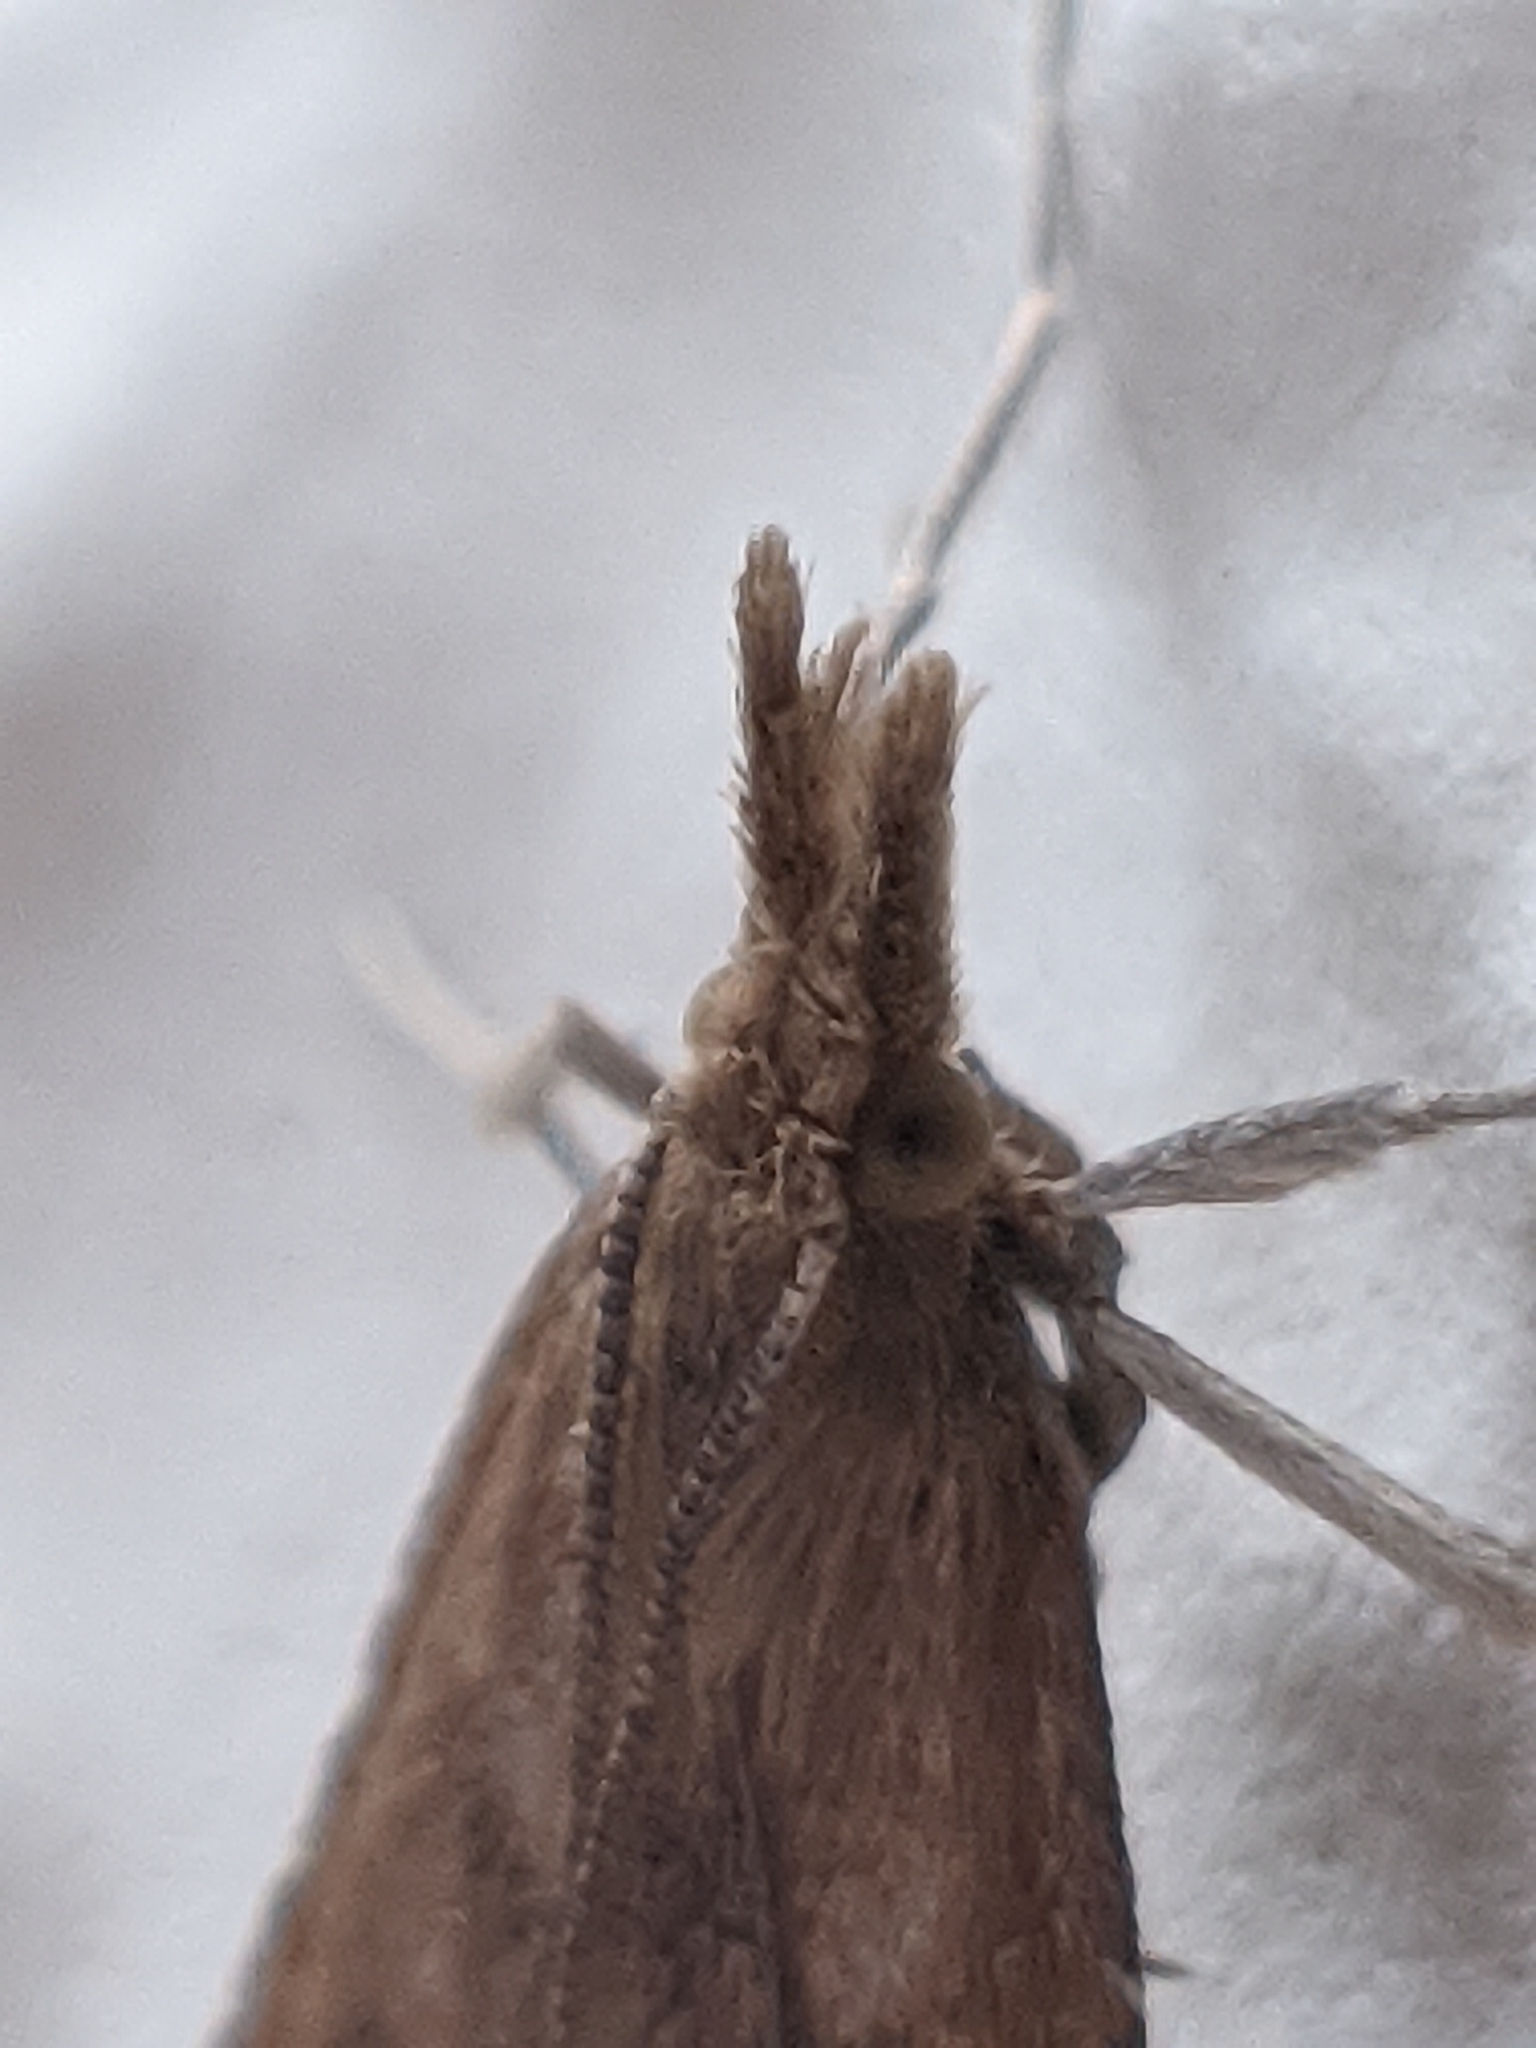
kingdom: Animalia
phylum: Arthropoda
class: Insecta
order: Lepidoptera
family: Pyralidae
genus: Synaphe
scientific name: Synaphe punctalis
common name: Long-legged tabby
